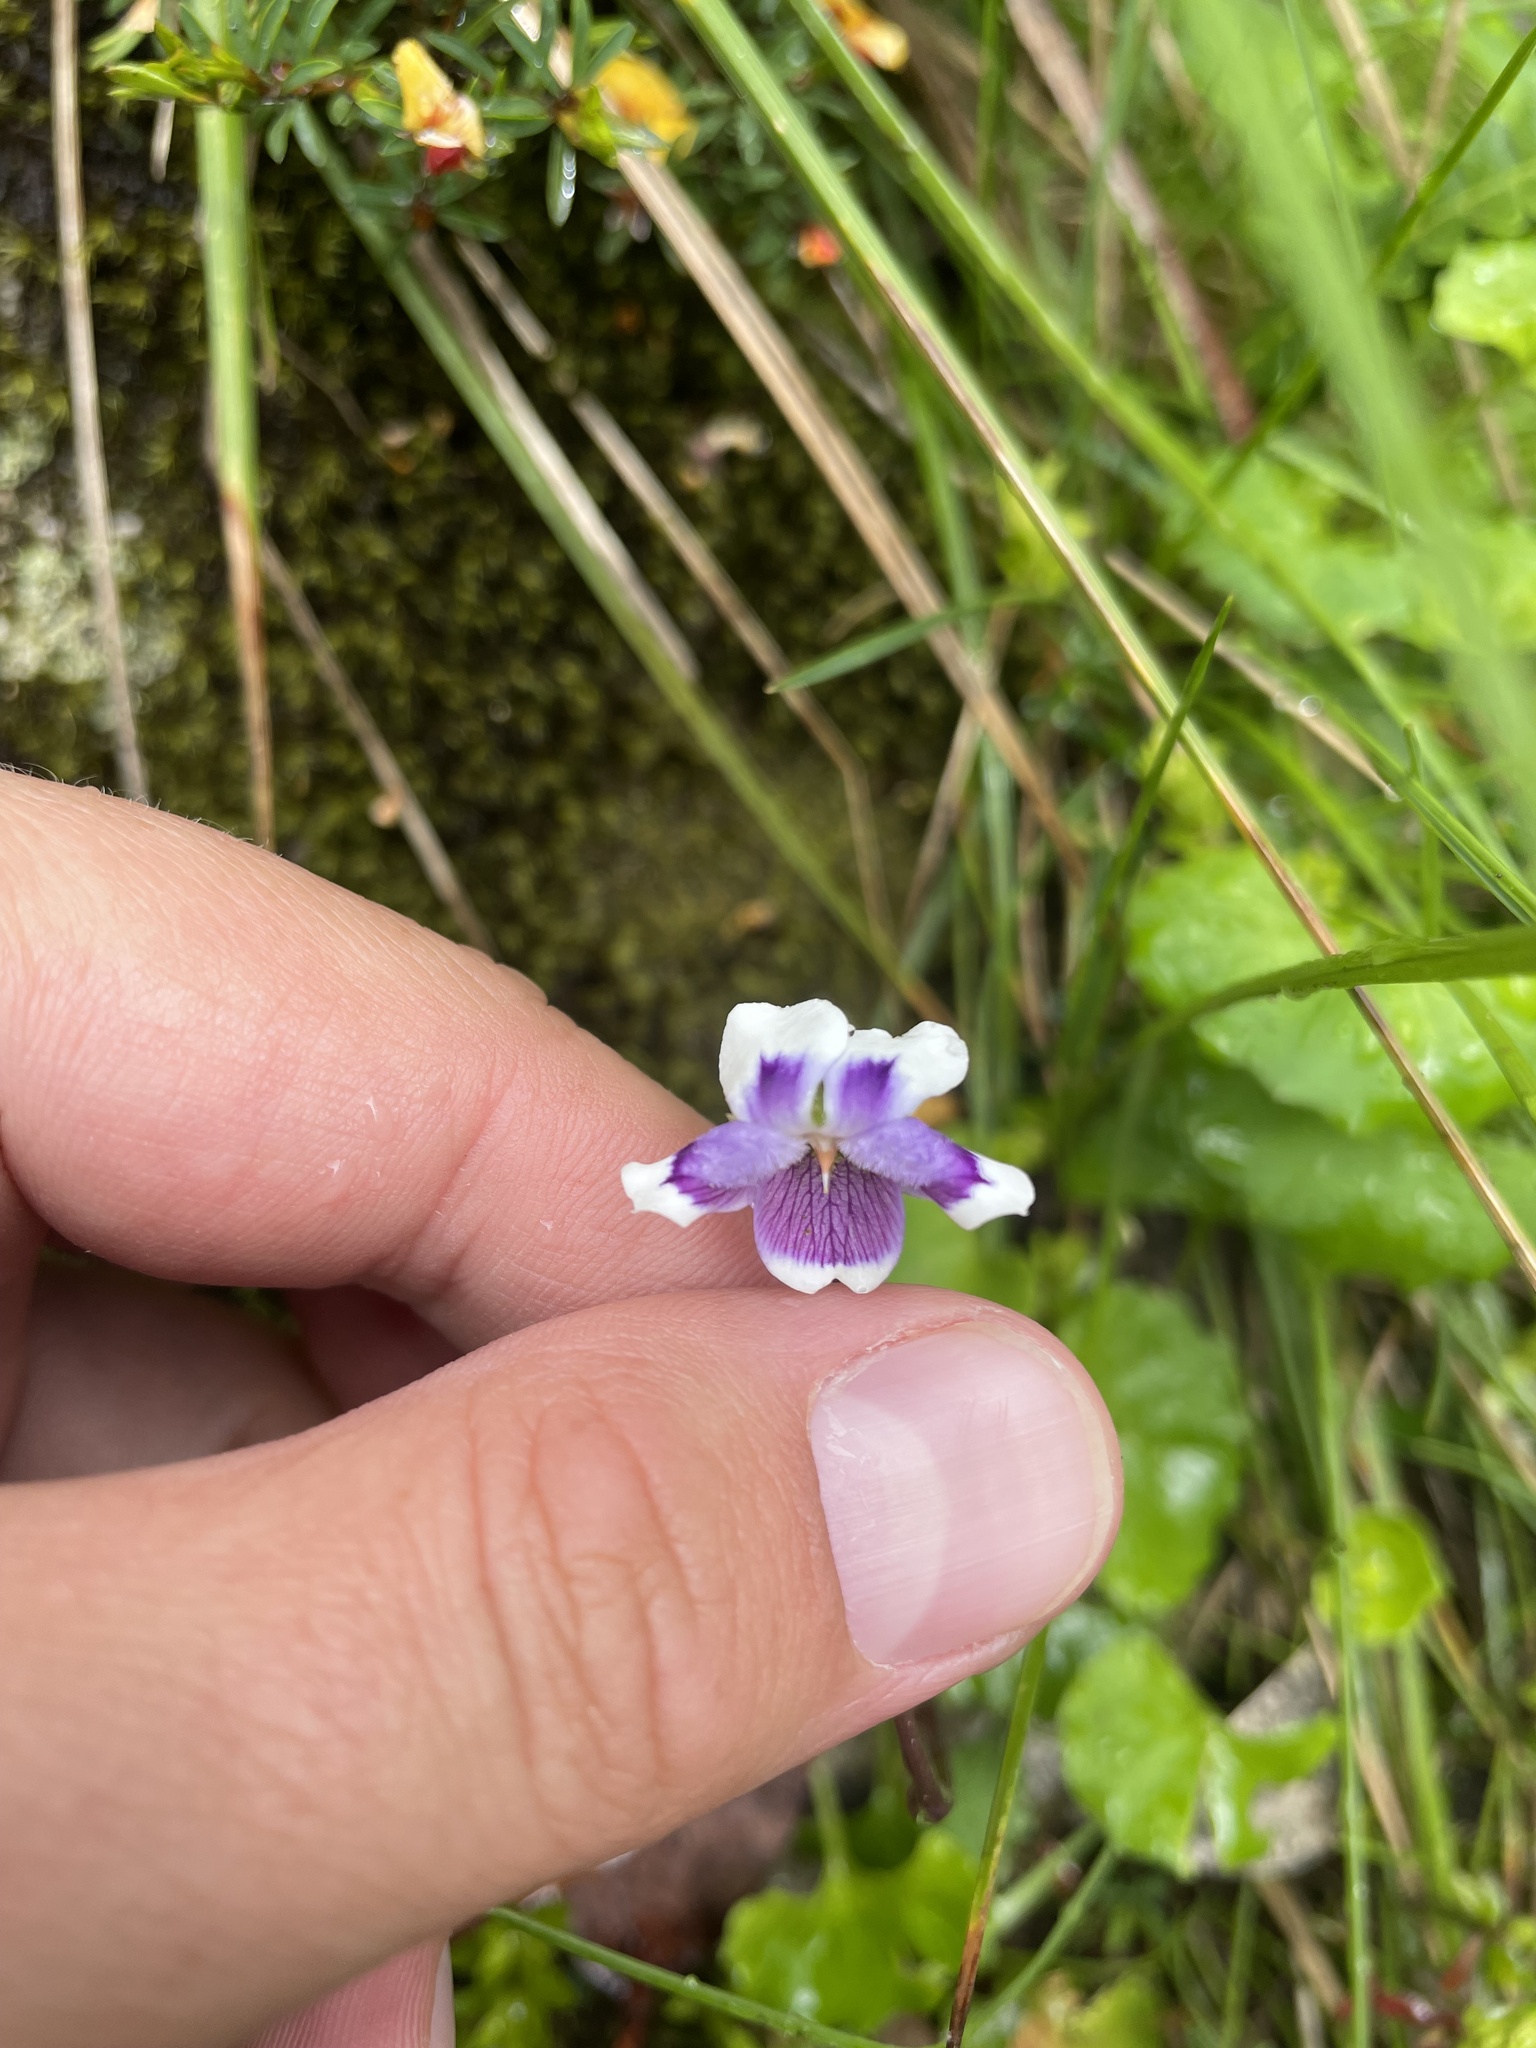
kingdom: Plantae
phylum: Tracheophyta
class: Magnoliopsida
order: Malpighiales
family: Violaceae
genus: Viola
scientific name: Viola eminens
